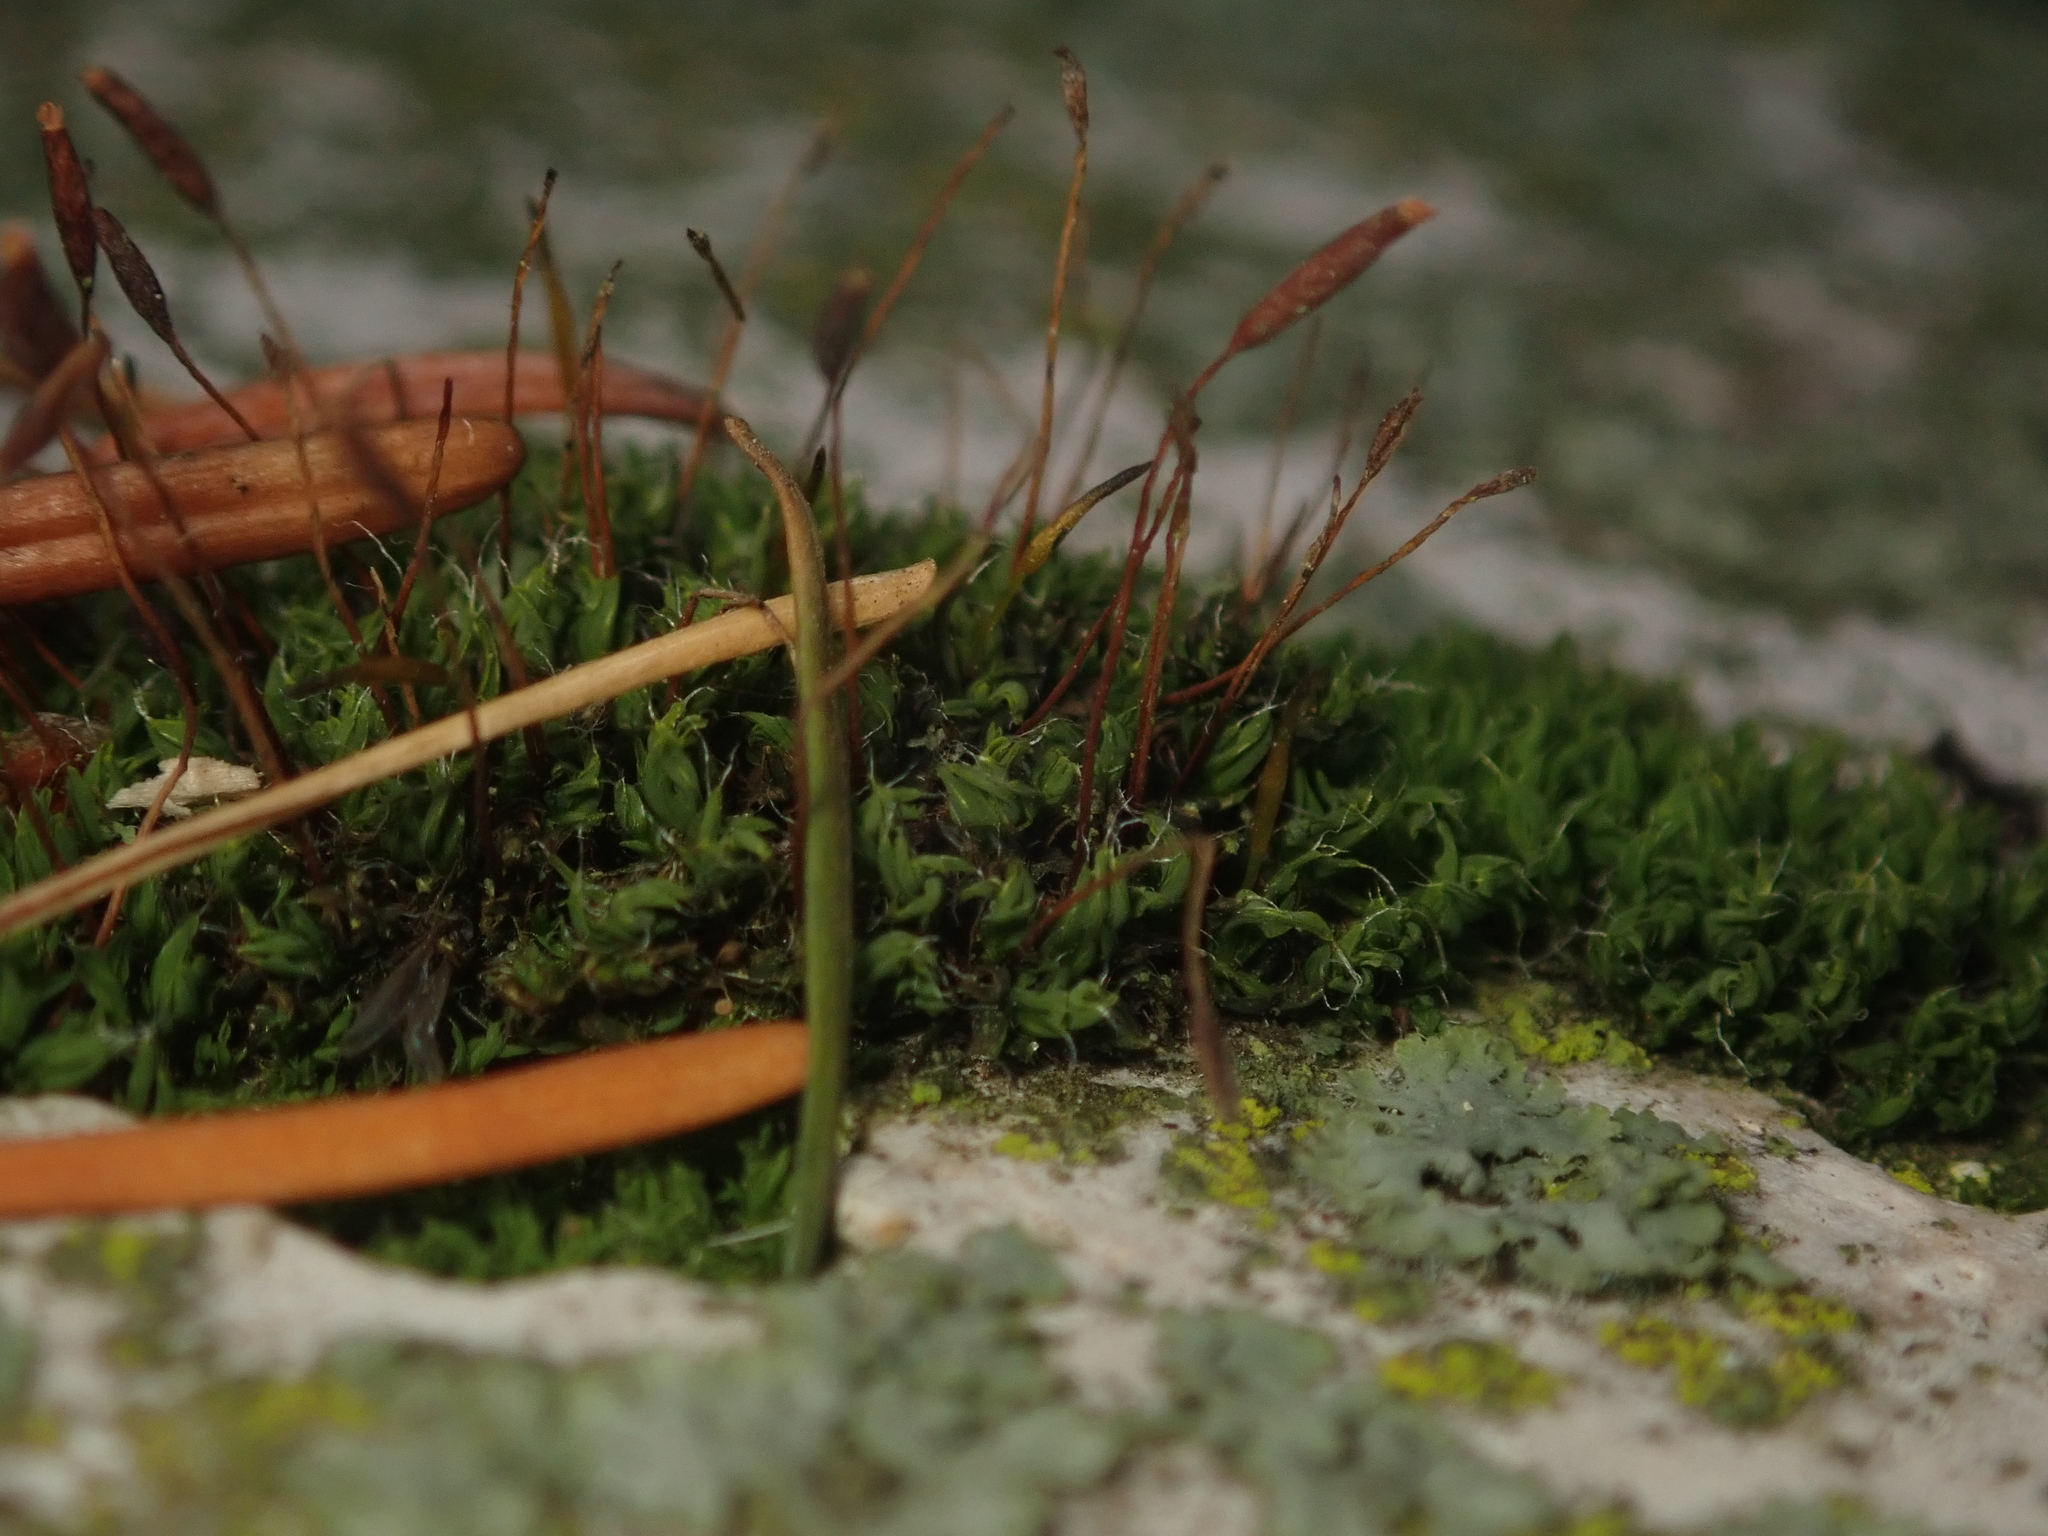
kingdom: Plantae
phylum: Bryophyta
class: Bryopsida
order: Pottiales
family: Pottiaceae
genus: Tortula
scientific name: Tortula muralis
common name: Wall screw-moss
